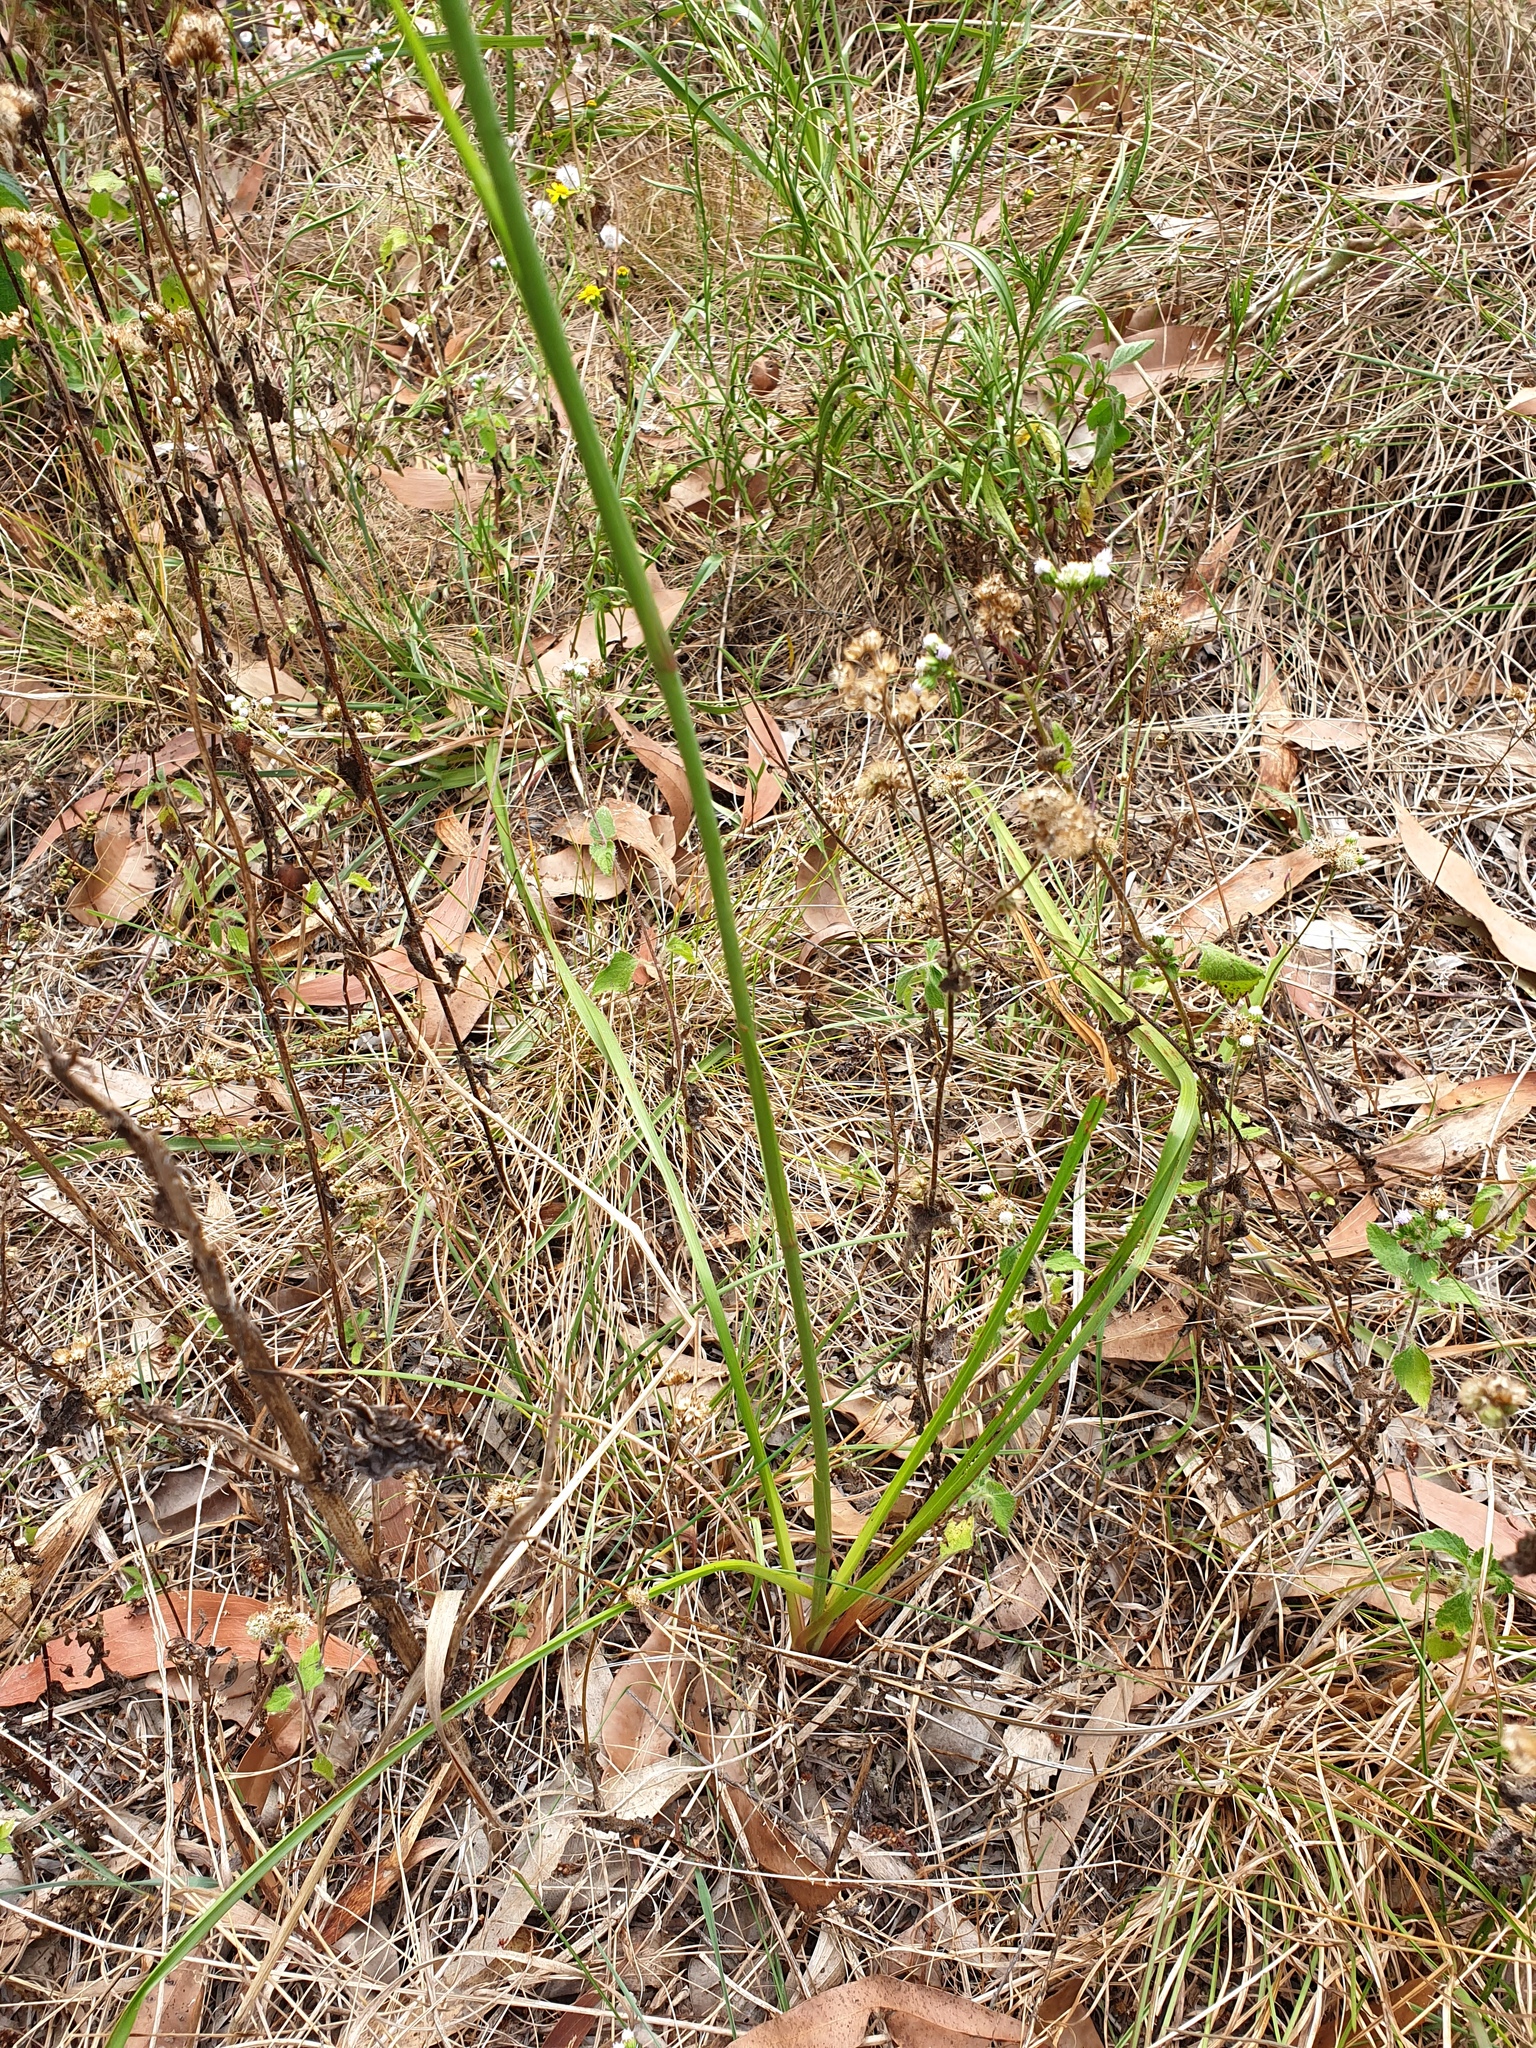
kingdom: Plantae
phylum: Tracheophyta
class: Liliopsida
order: Asparagales
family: Asphodelaceae
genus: Dianella
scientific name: Dianella longifolia
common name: Blue flax-lily
